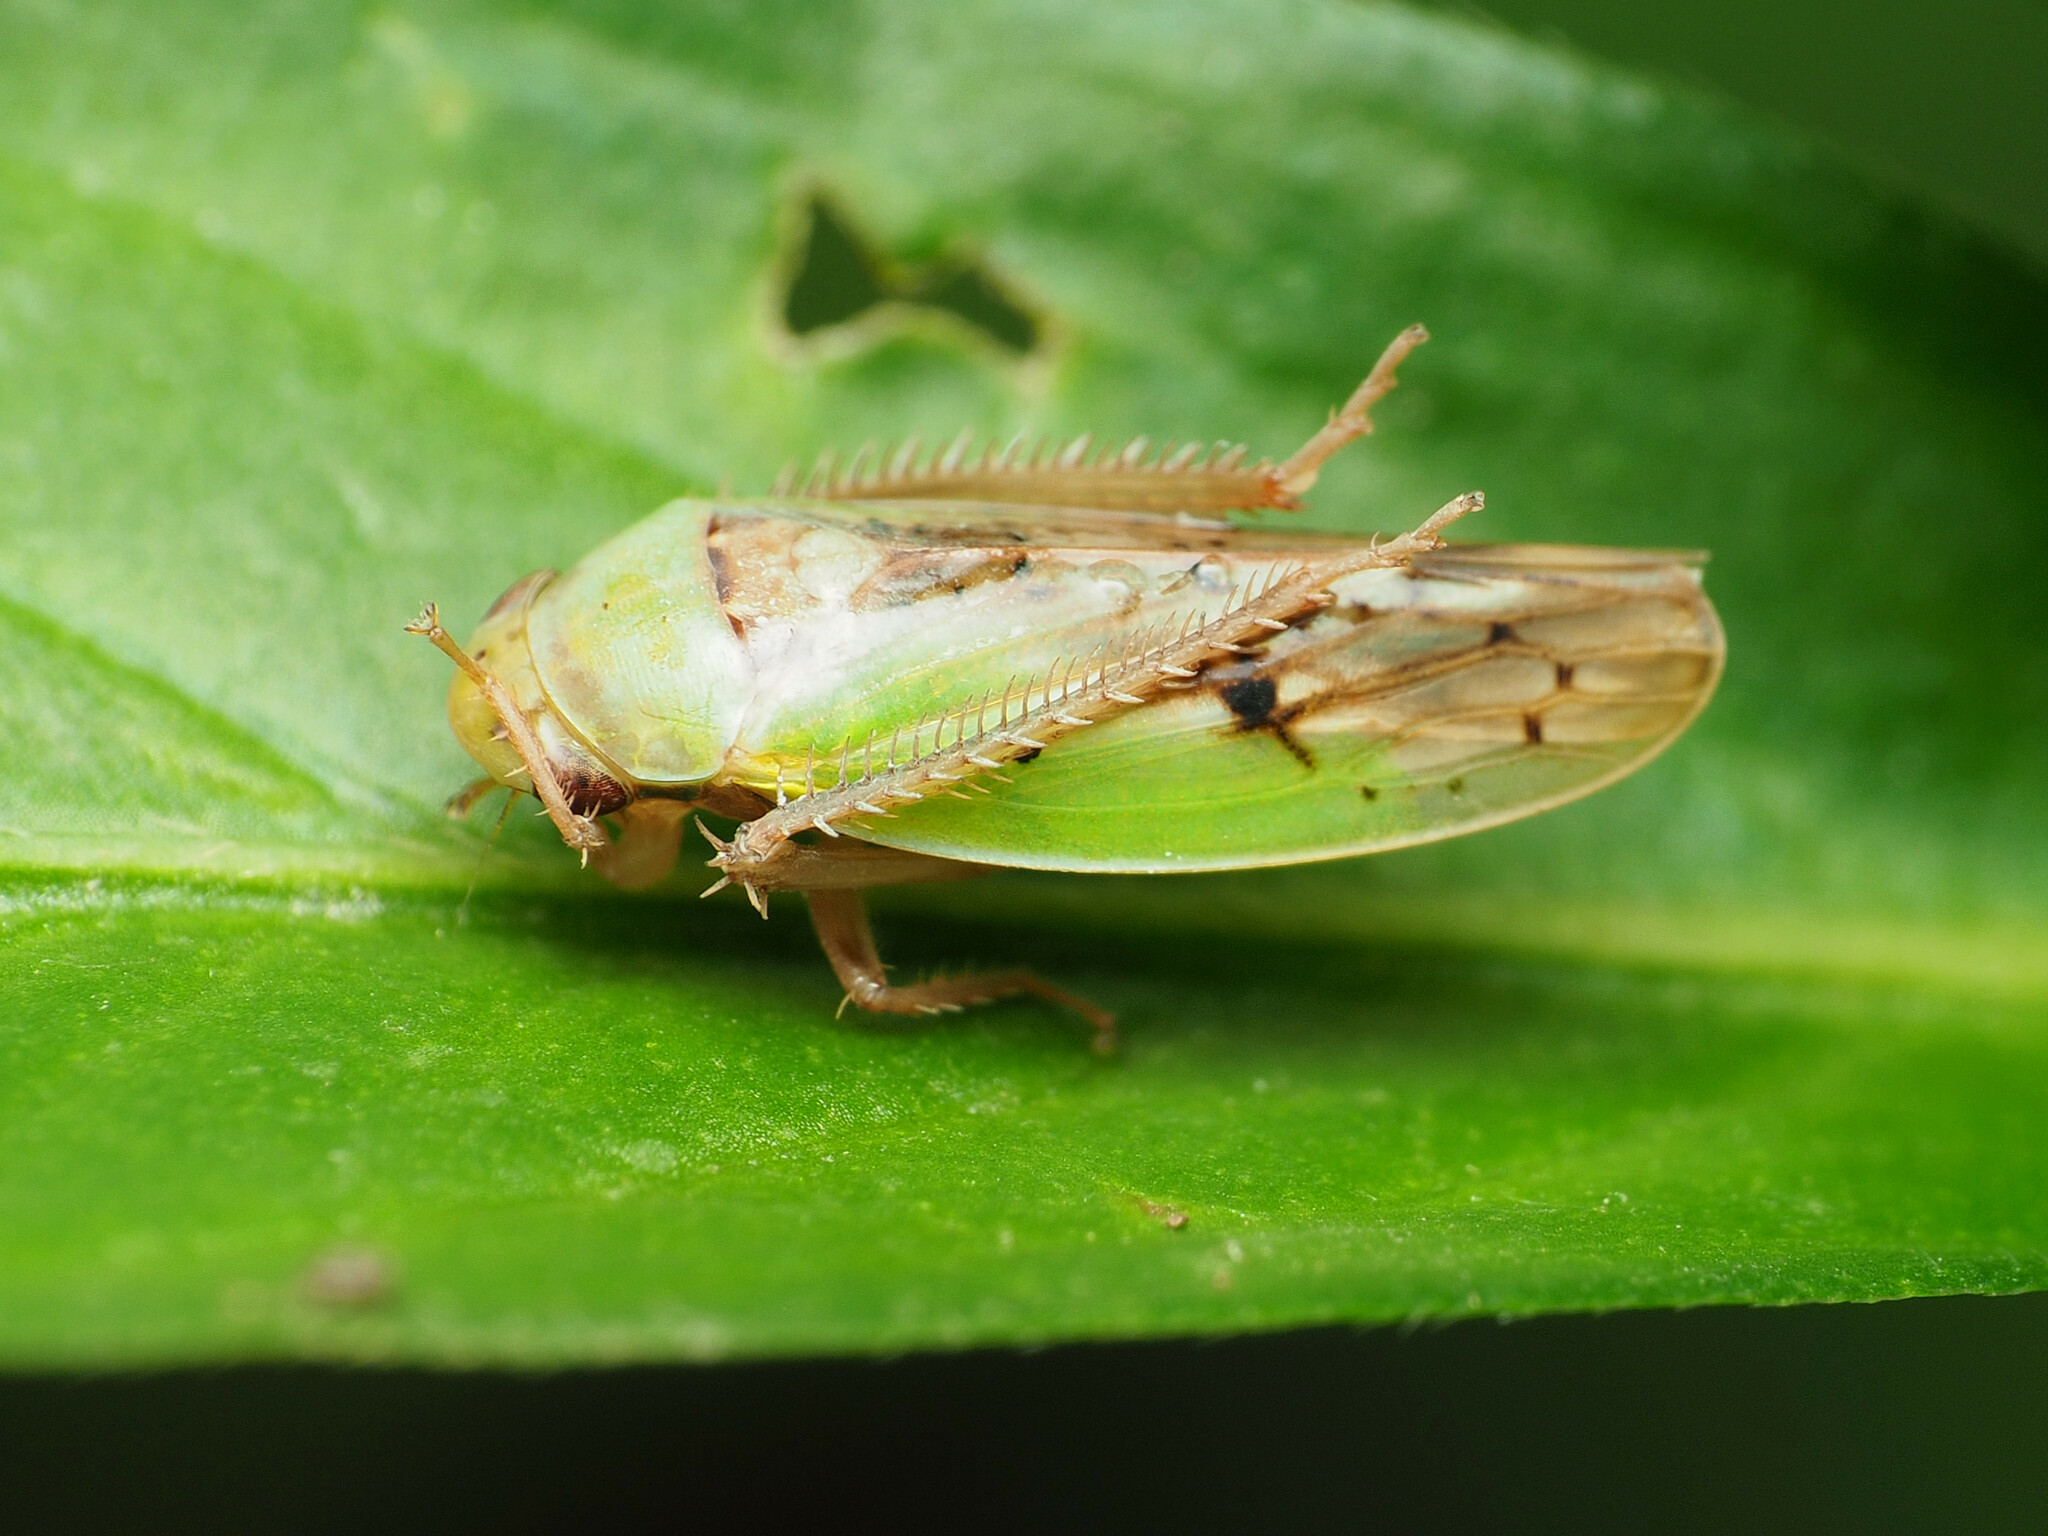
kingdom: Animalia
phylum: Arthropoda
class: Insecta
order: Hemiptera
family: Cicadellidae
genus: Ponana
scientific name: Ponana pectoralis
